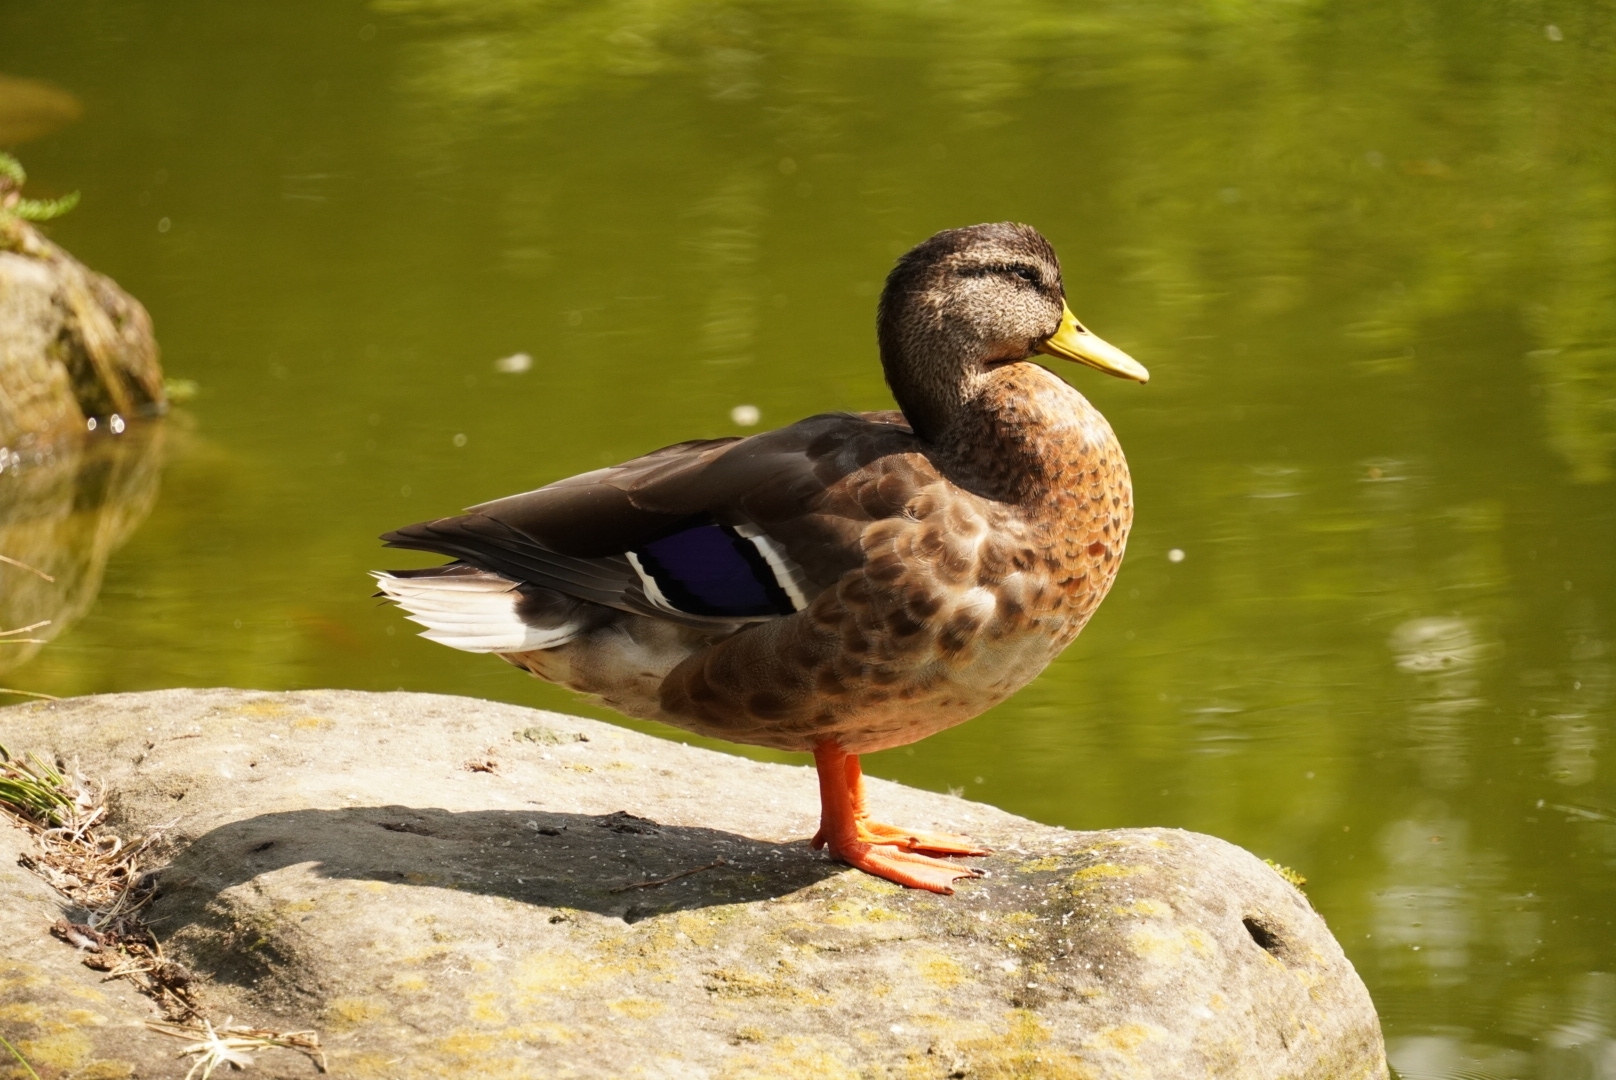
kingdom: Animalia
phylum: Chordata
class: Aves
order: Anseriformes
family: Anatidae
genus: Anas
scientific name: Anas platyrhynchos
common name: Mallard
